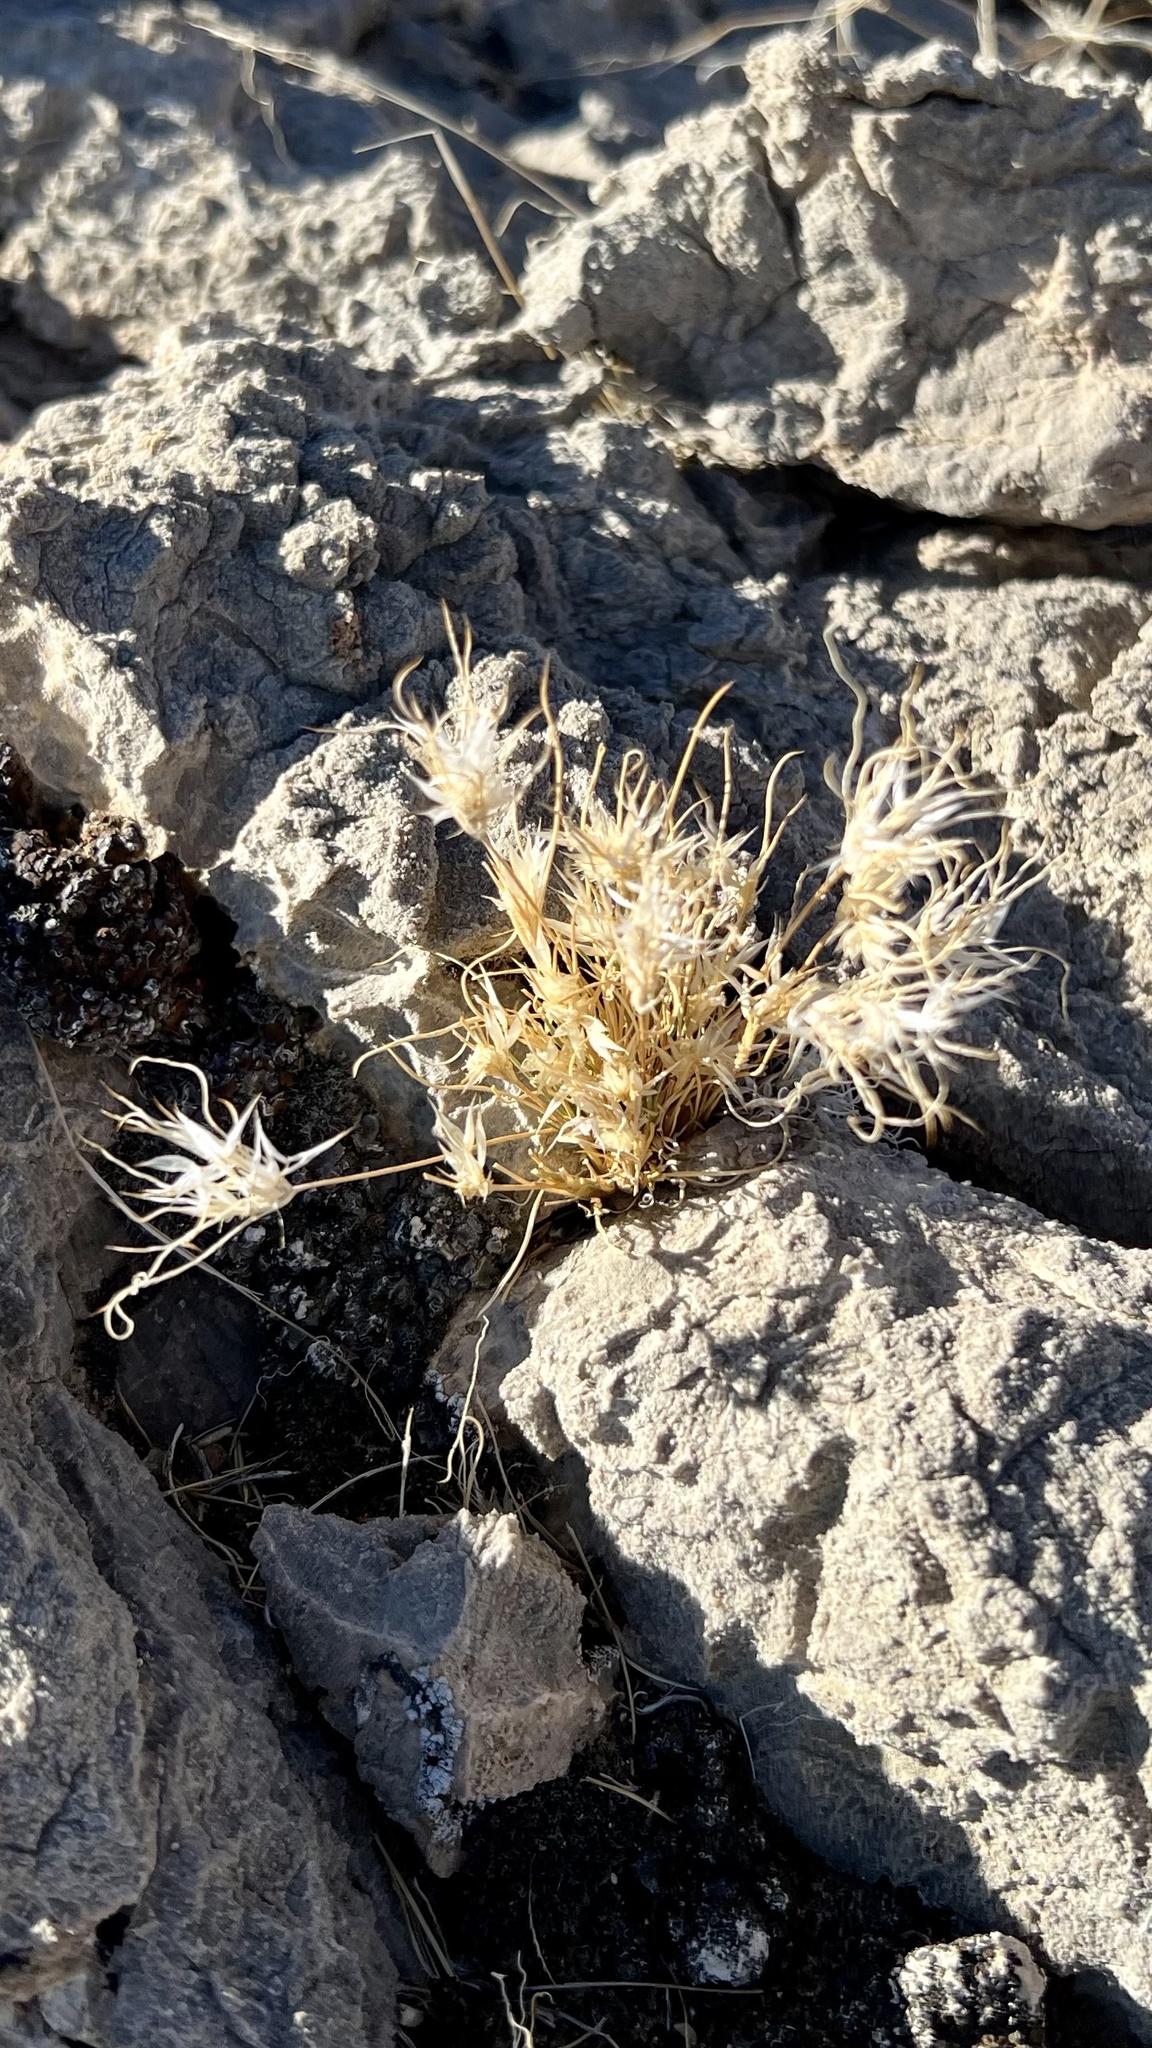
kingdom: Plantae
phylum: Tracheophyta
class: Liliopsida
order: Poales
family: Poaceae
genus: Dasyochloa
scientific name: Dasyochloa pulchella
